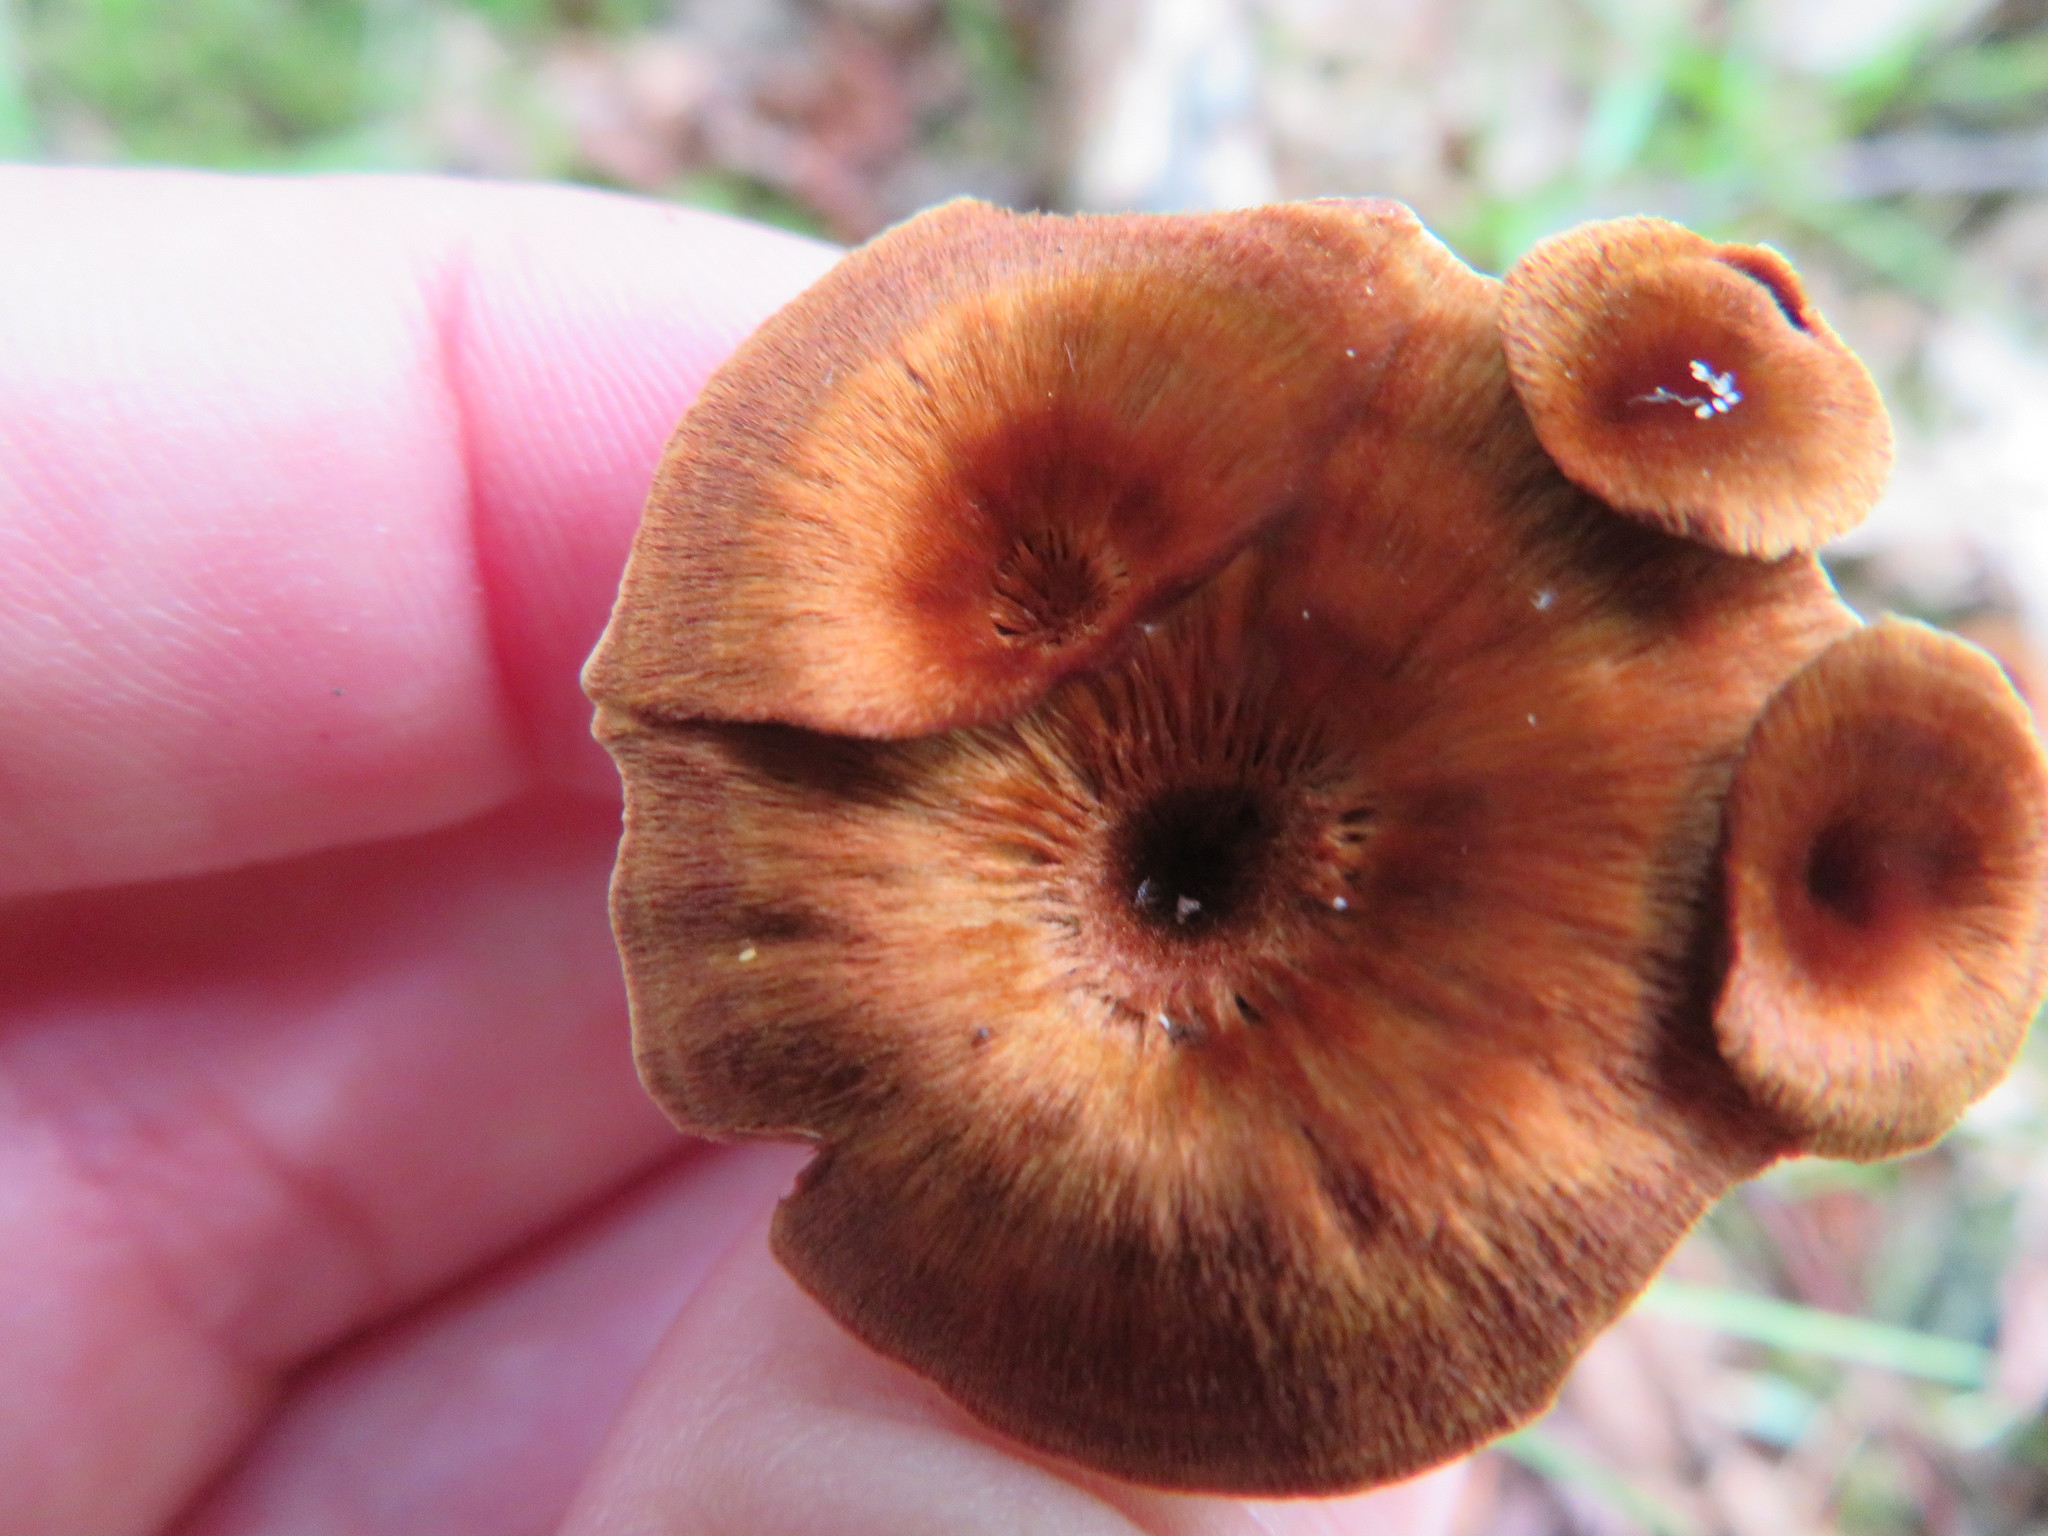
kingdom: Fungi
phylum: Basidiomycota
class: Agaricomycetes
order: Hymenochaetales
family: Hymenochaetaceae
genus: Coltricia
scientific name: Coltricia cinnamomea
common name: Shiny cinnamon polypore
